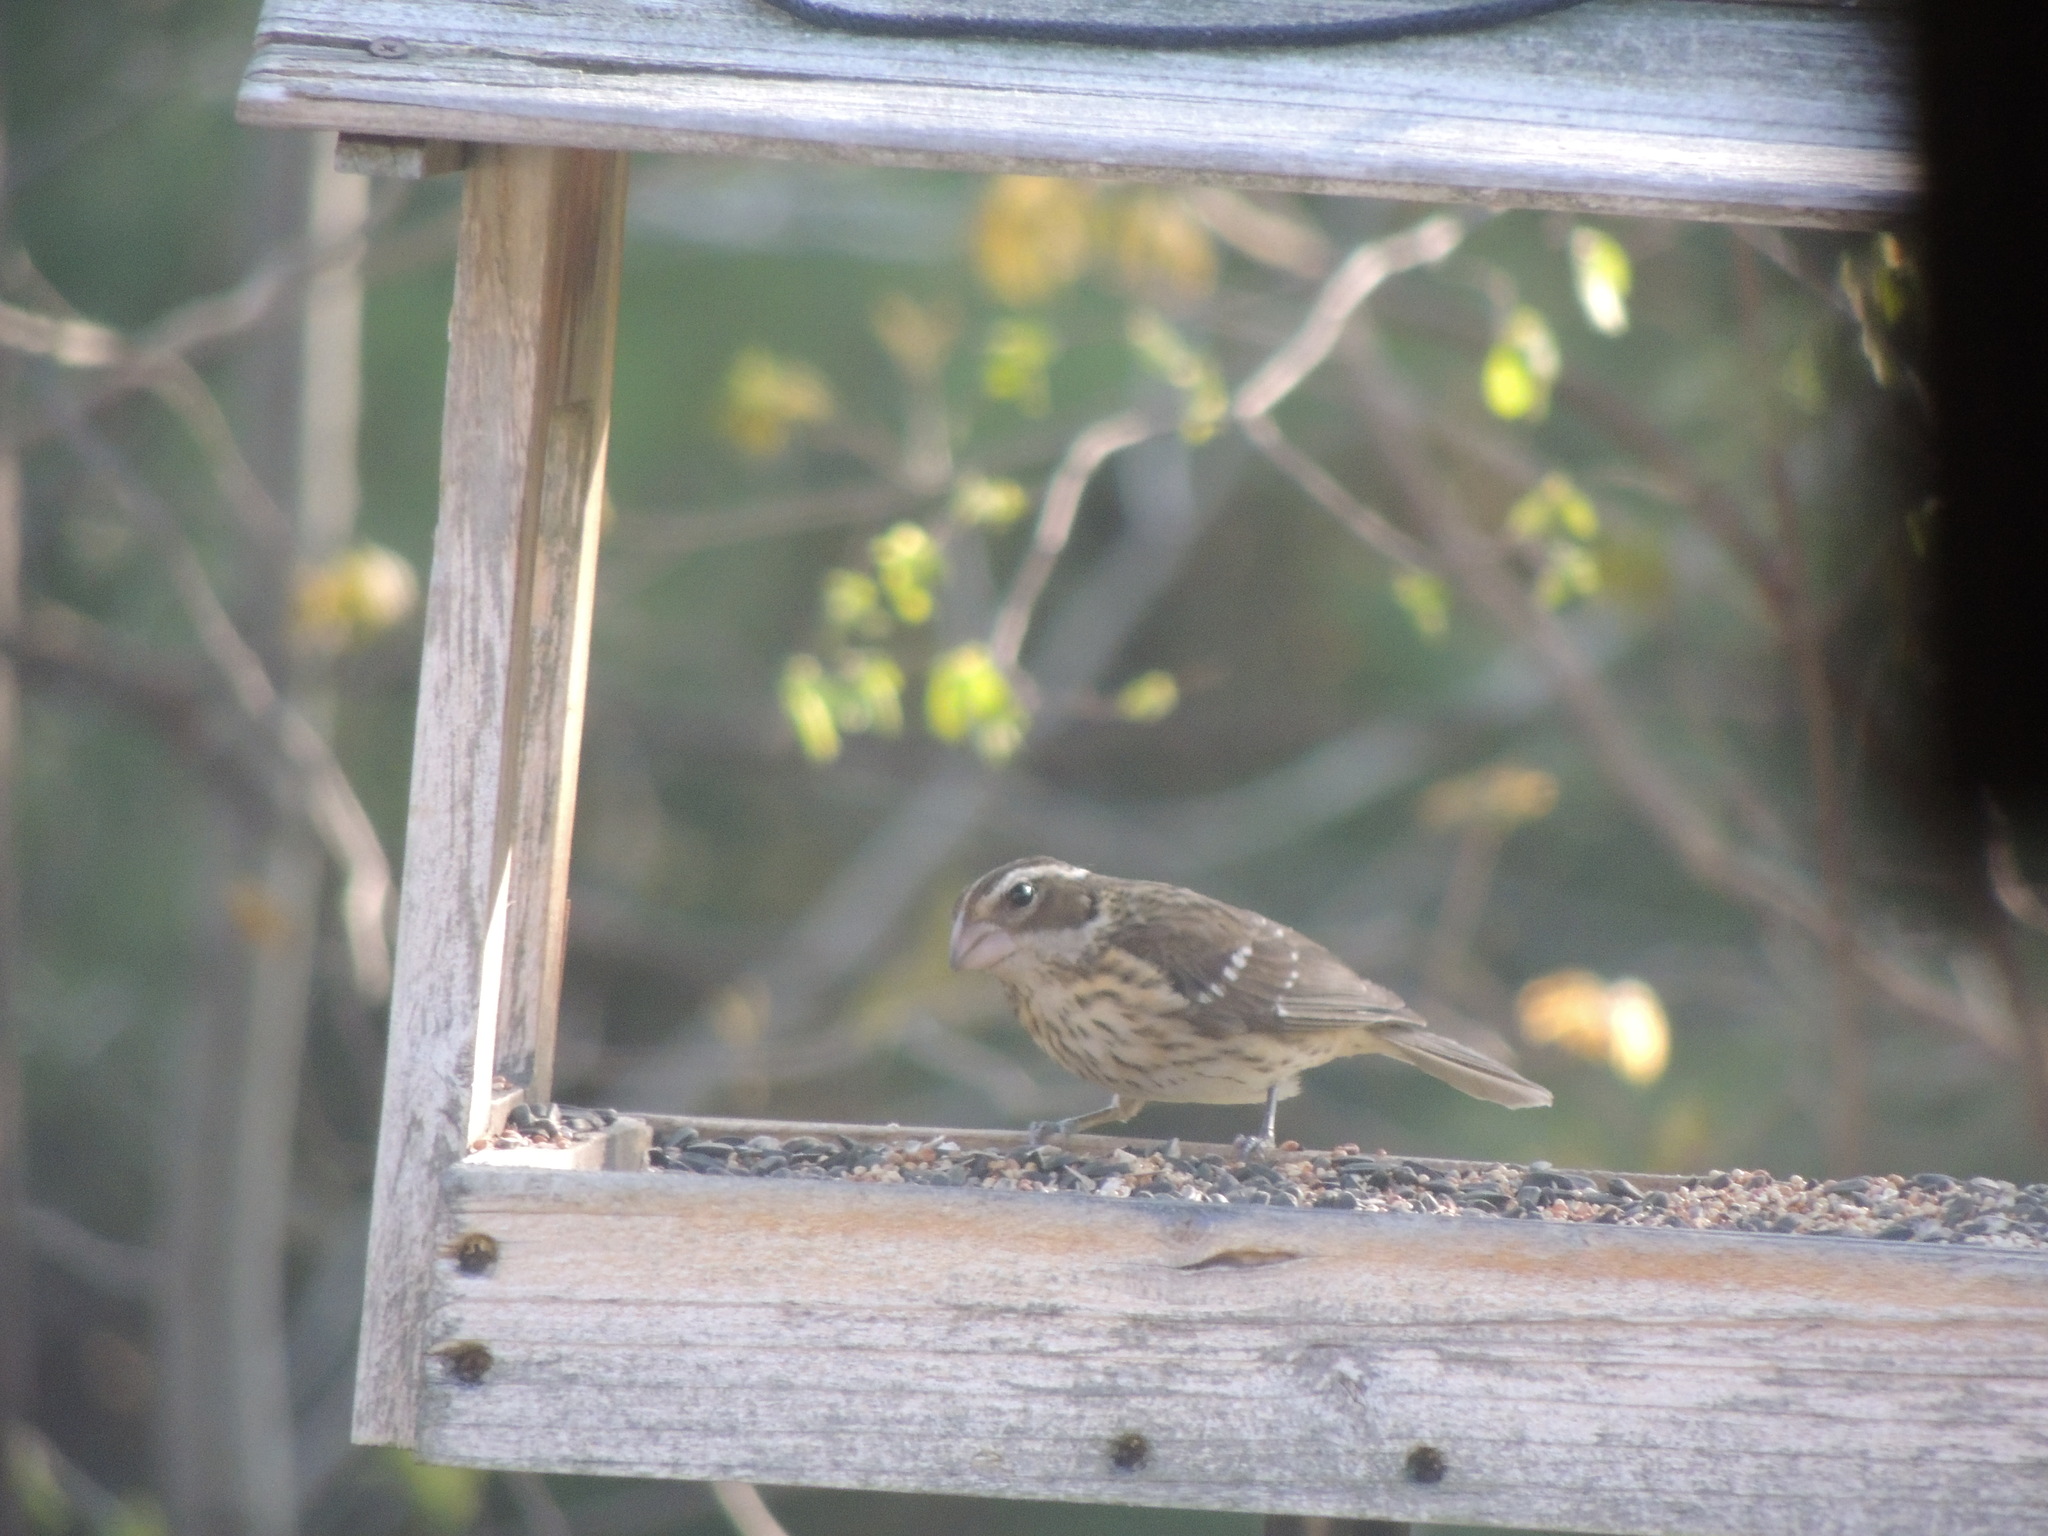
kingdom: Animalia
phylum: Chordata
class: Aves
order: Passeriformes
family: Cardinalidae
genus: Pheucticus
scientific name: Pheucticus ludovicianus
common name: Rose-breasted grosbeak
